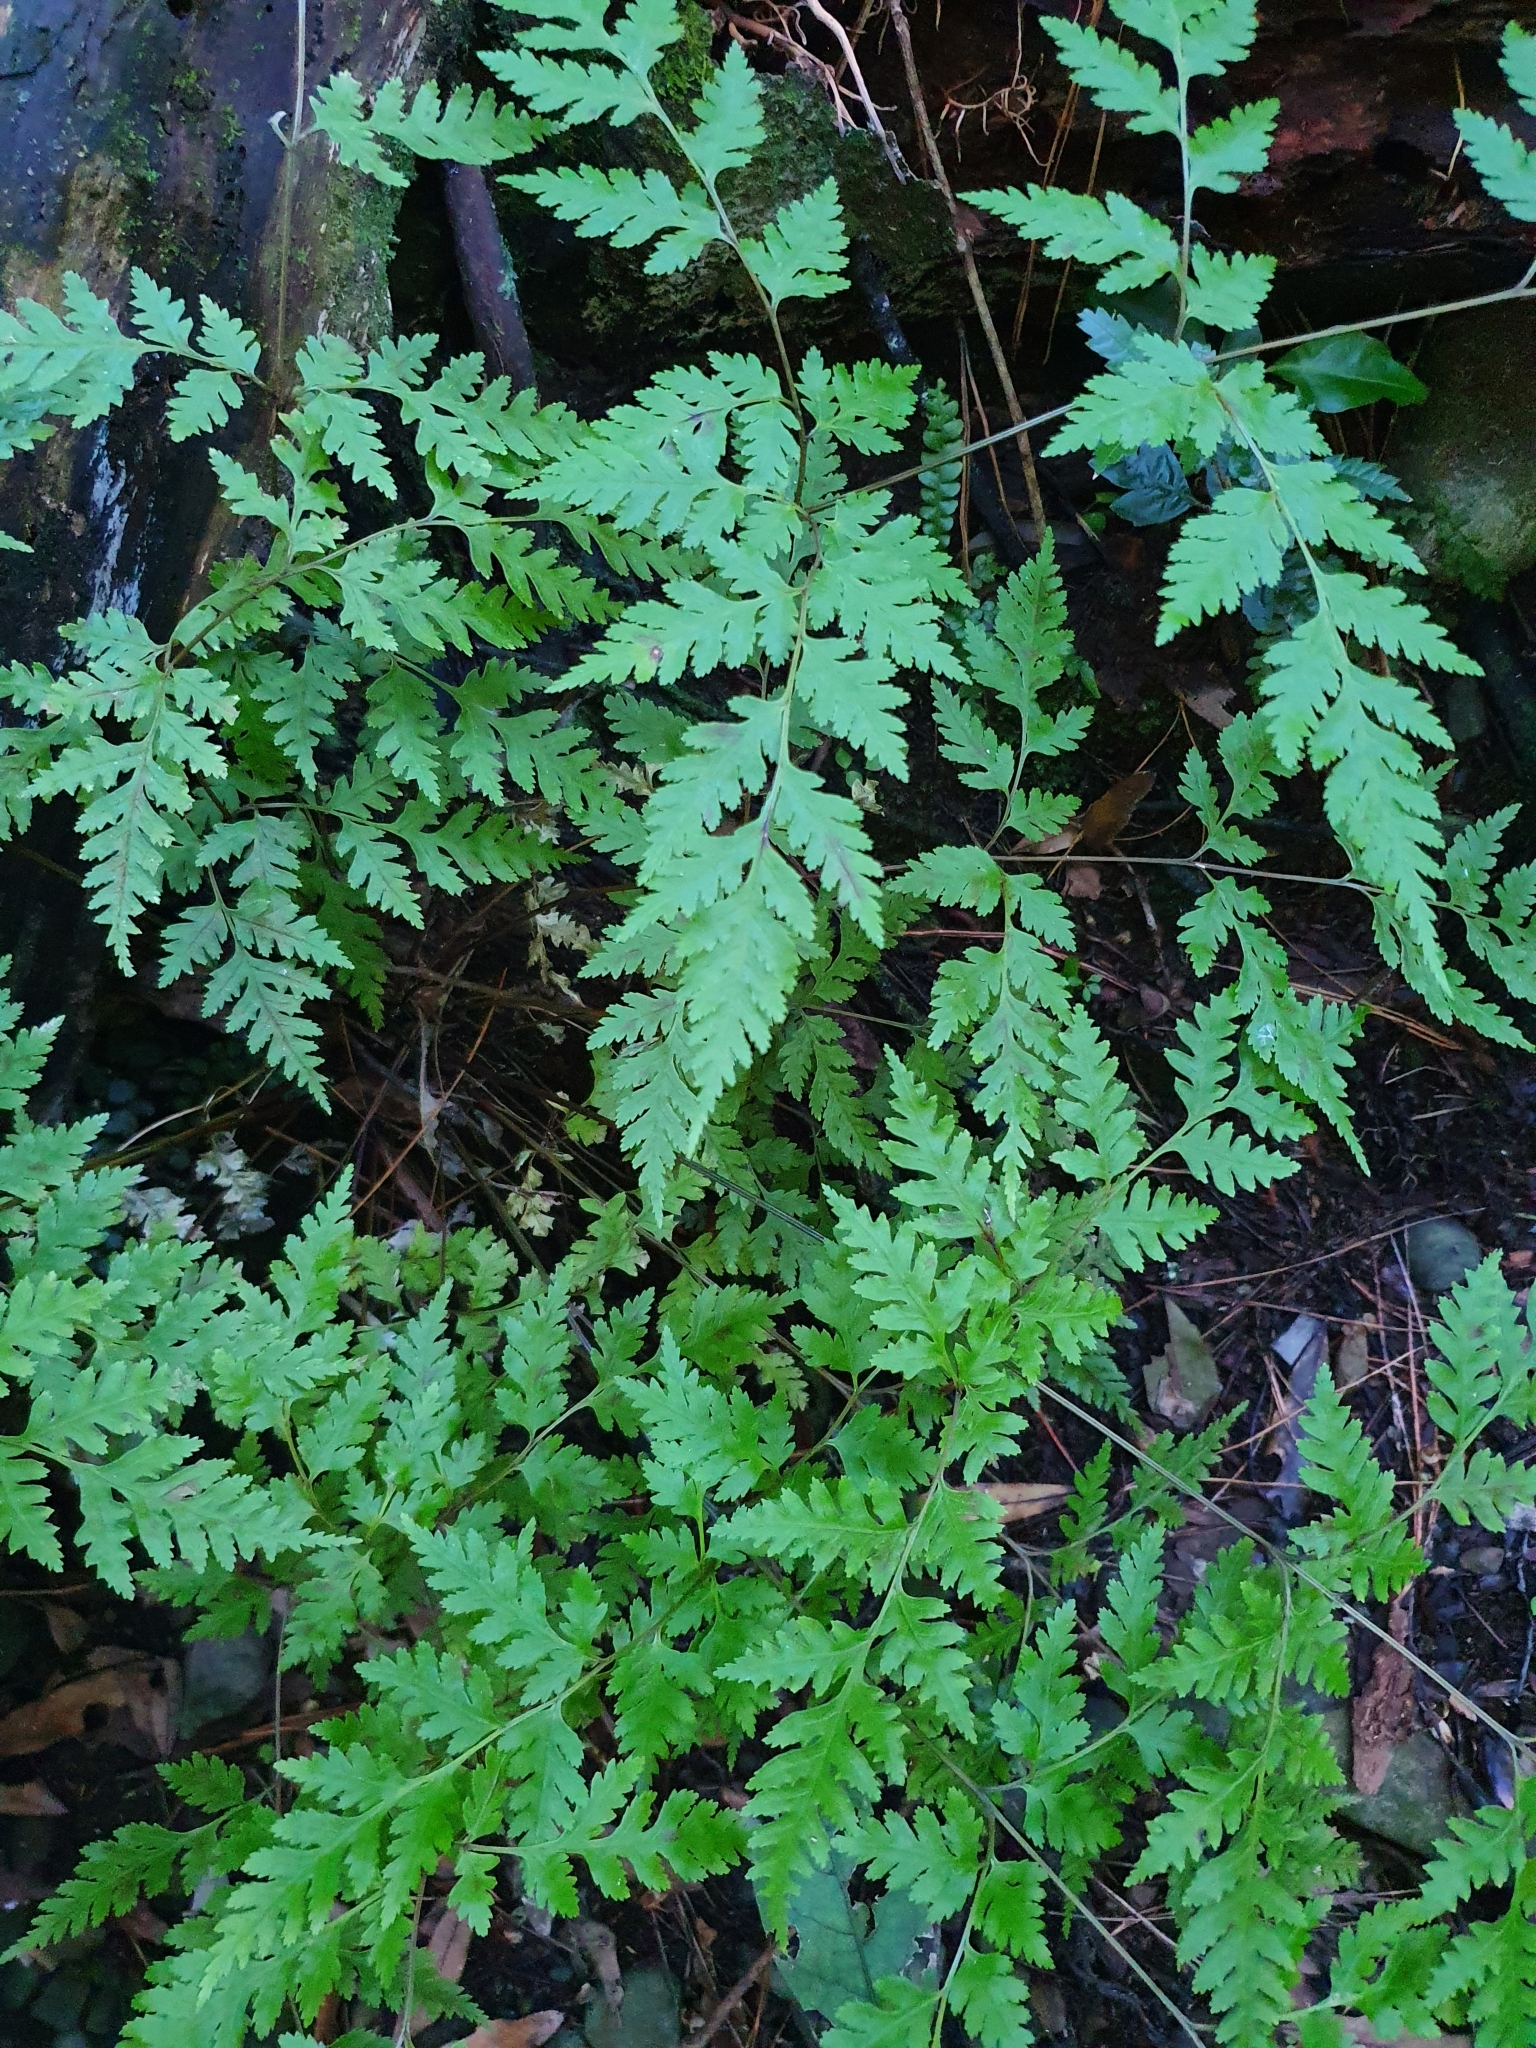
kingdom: Plantae
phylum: Tracheophyta
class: Polypodiopsida
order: Polypodiales
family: Pteridaceae
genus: Pteris
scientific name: Pteris macilenta
